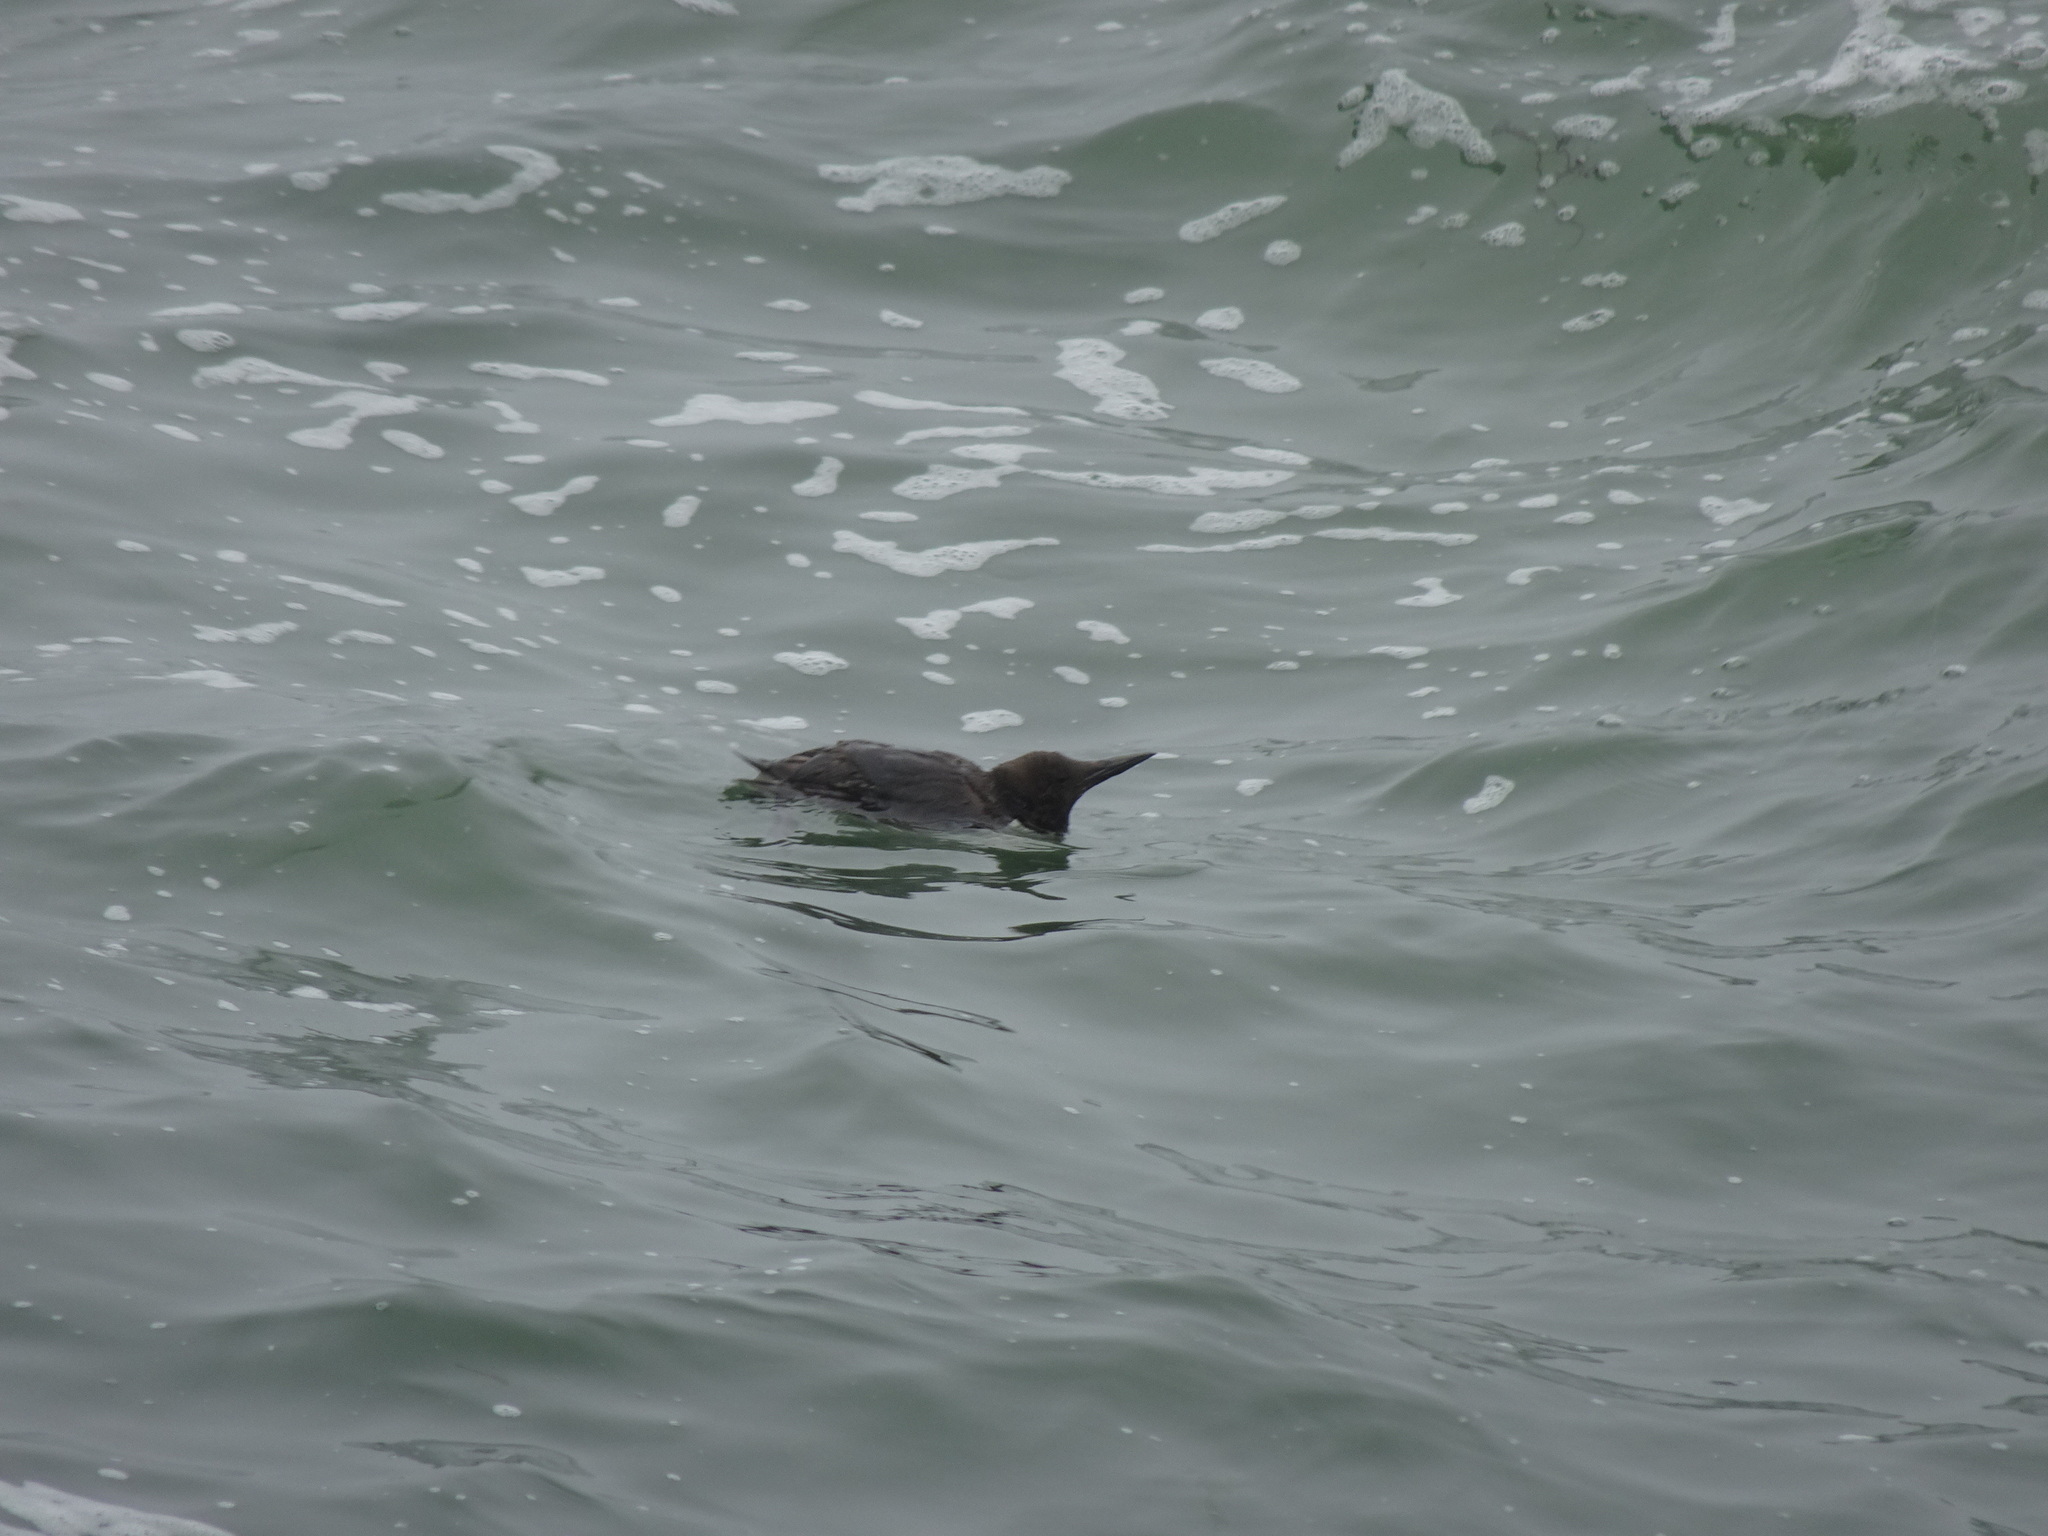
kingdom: Animalia
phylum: Chordata
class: Aves
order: Charadriiformes
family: Alcidae
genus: Uria
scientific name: Uria aalge
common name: Common murre
